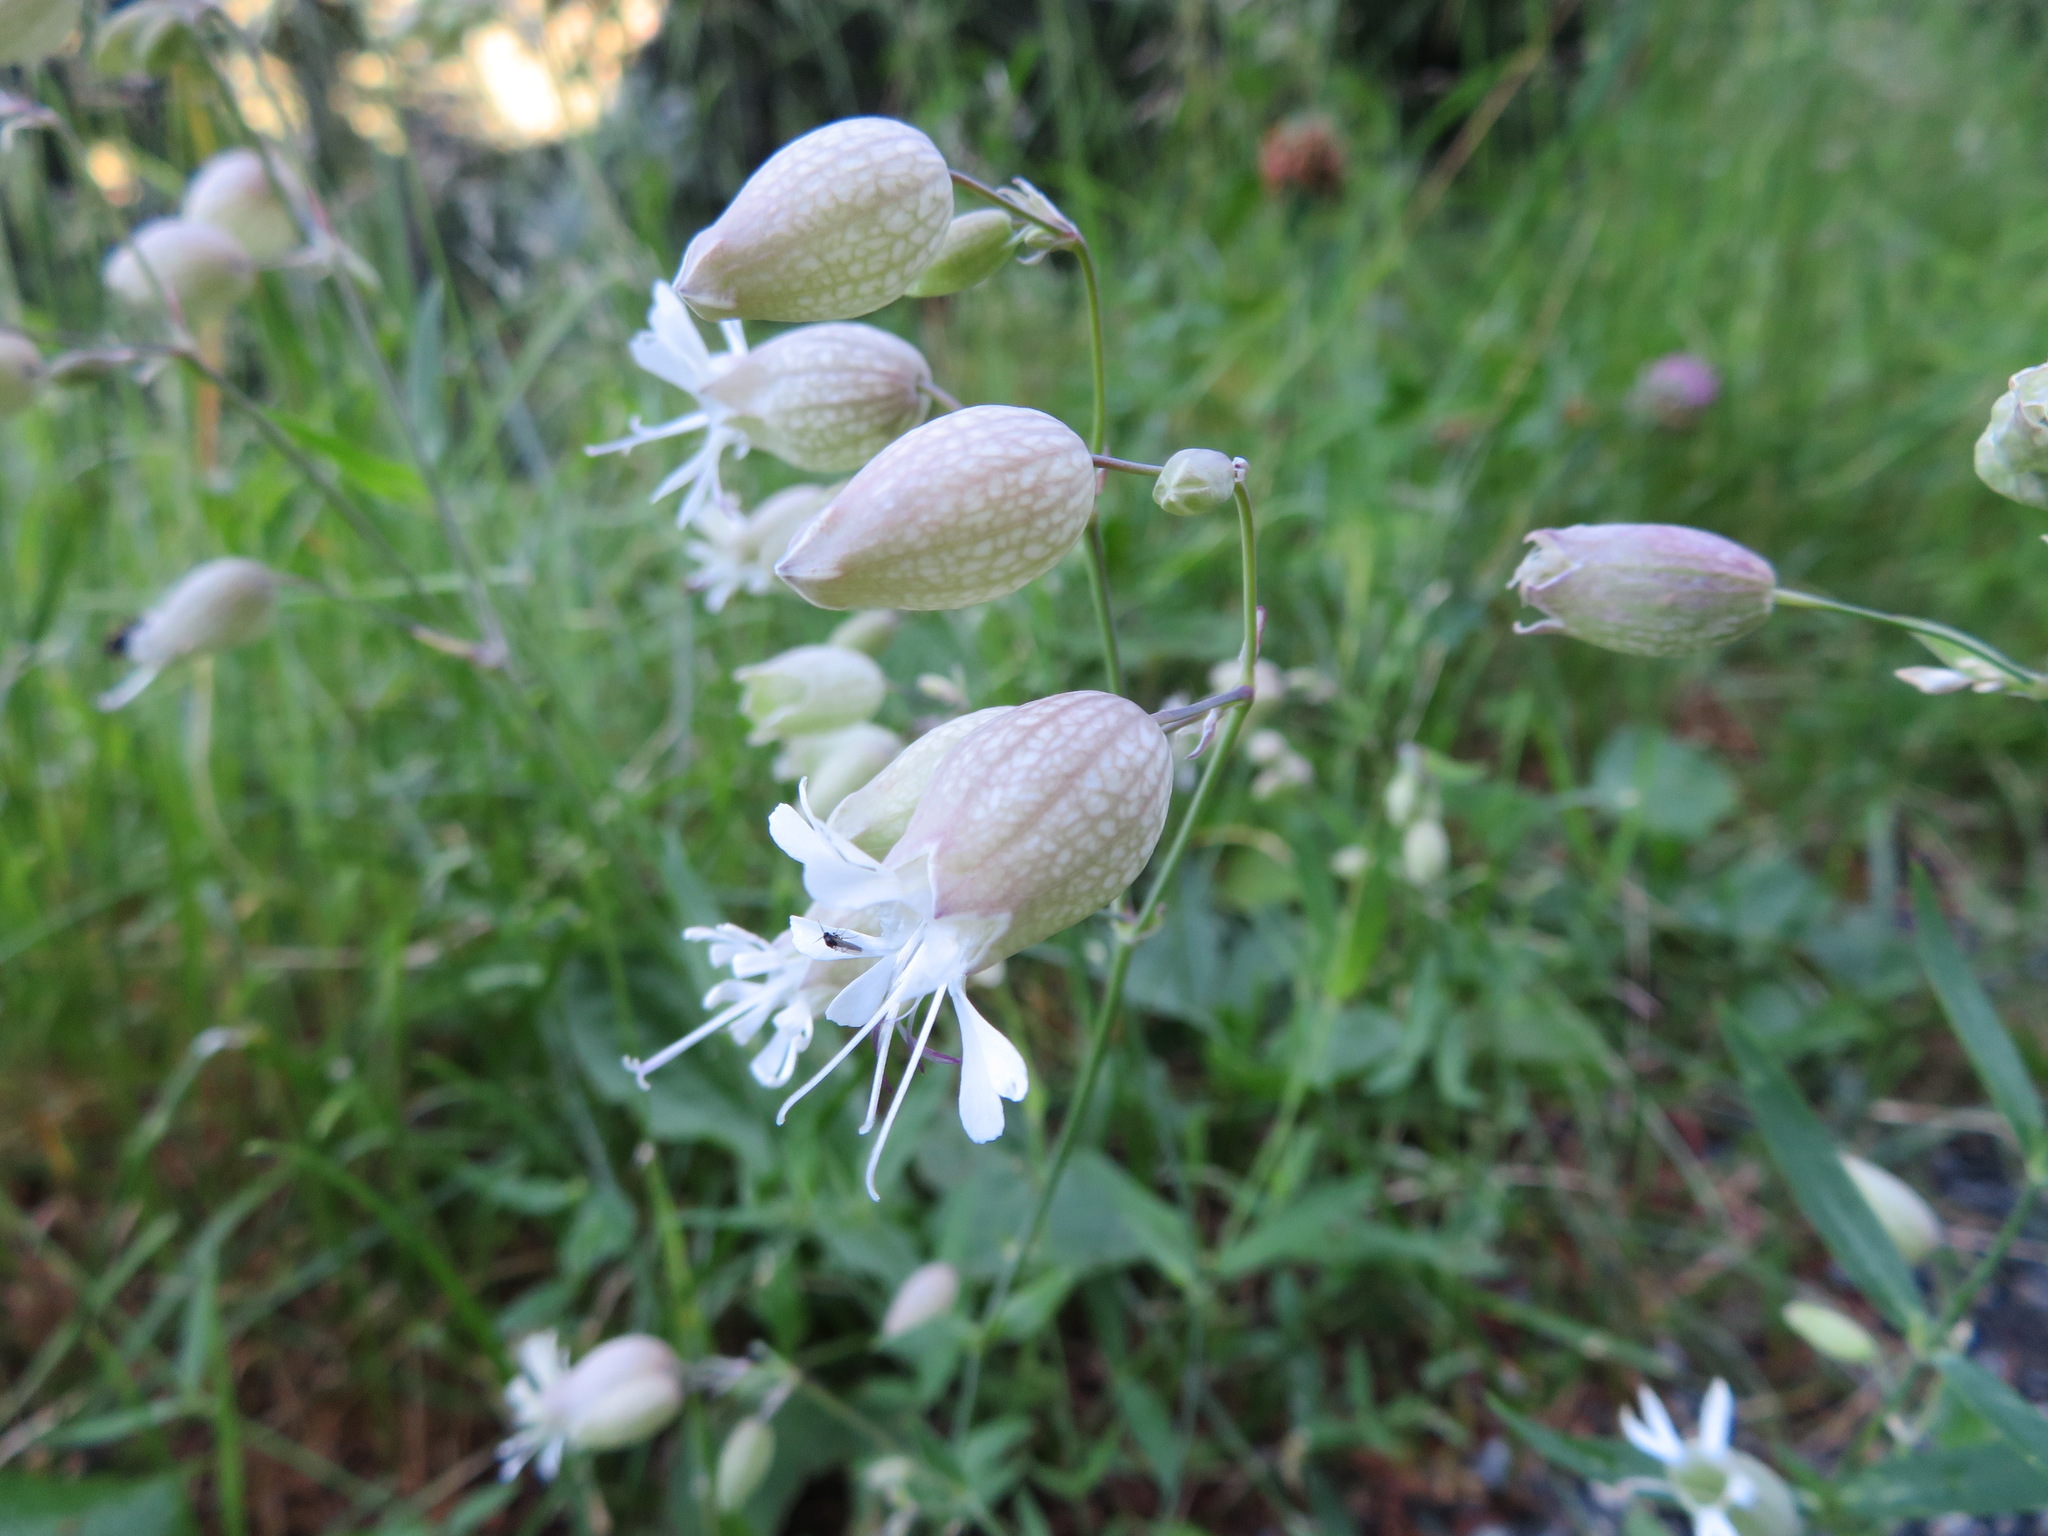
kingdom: Plantae
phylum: Tracheophyta
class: Magnoliopsida
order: Caryophyllales
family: Caryophyllaceae
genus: Silene
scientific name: Silene vulgaris
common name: Bladder campion
